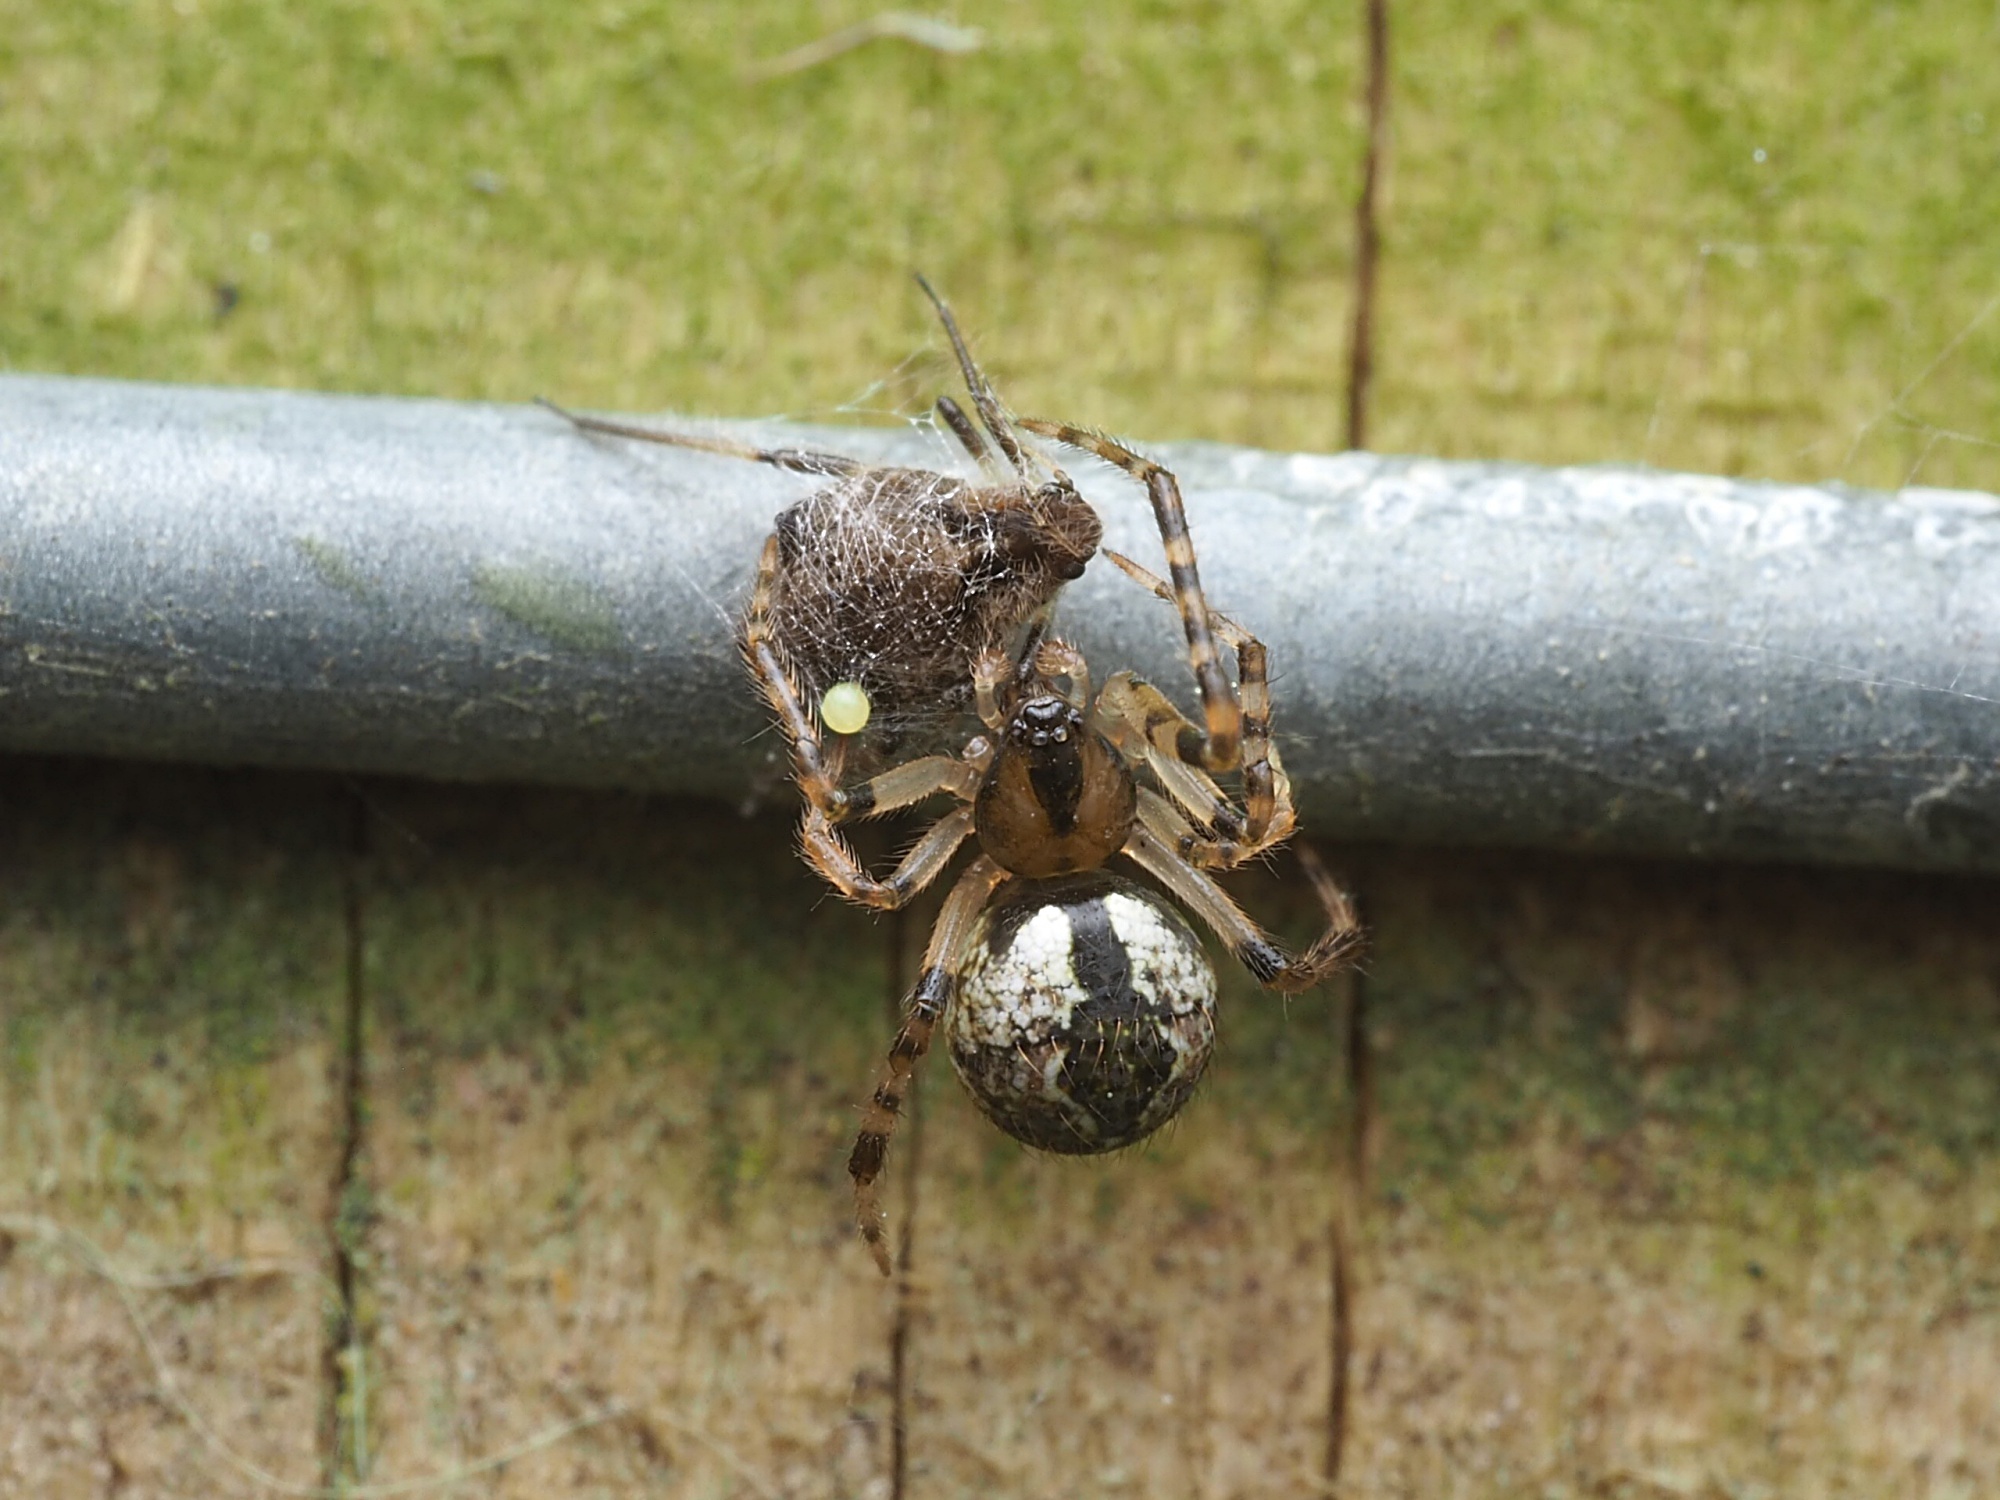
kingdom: Animalia
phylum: Arthropoda
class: Arachnida
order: Araneae
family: Theridiidae
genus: Cryptachaea
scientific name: Cryptachaea veruculata
